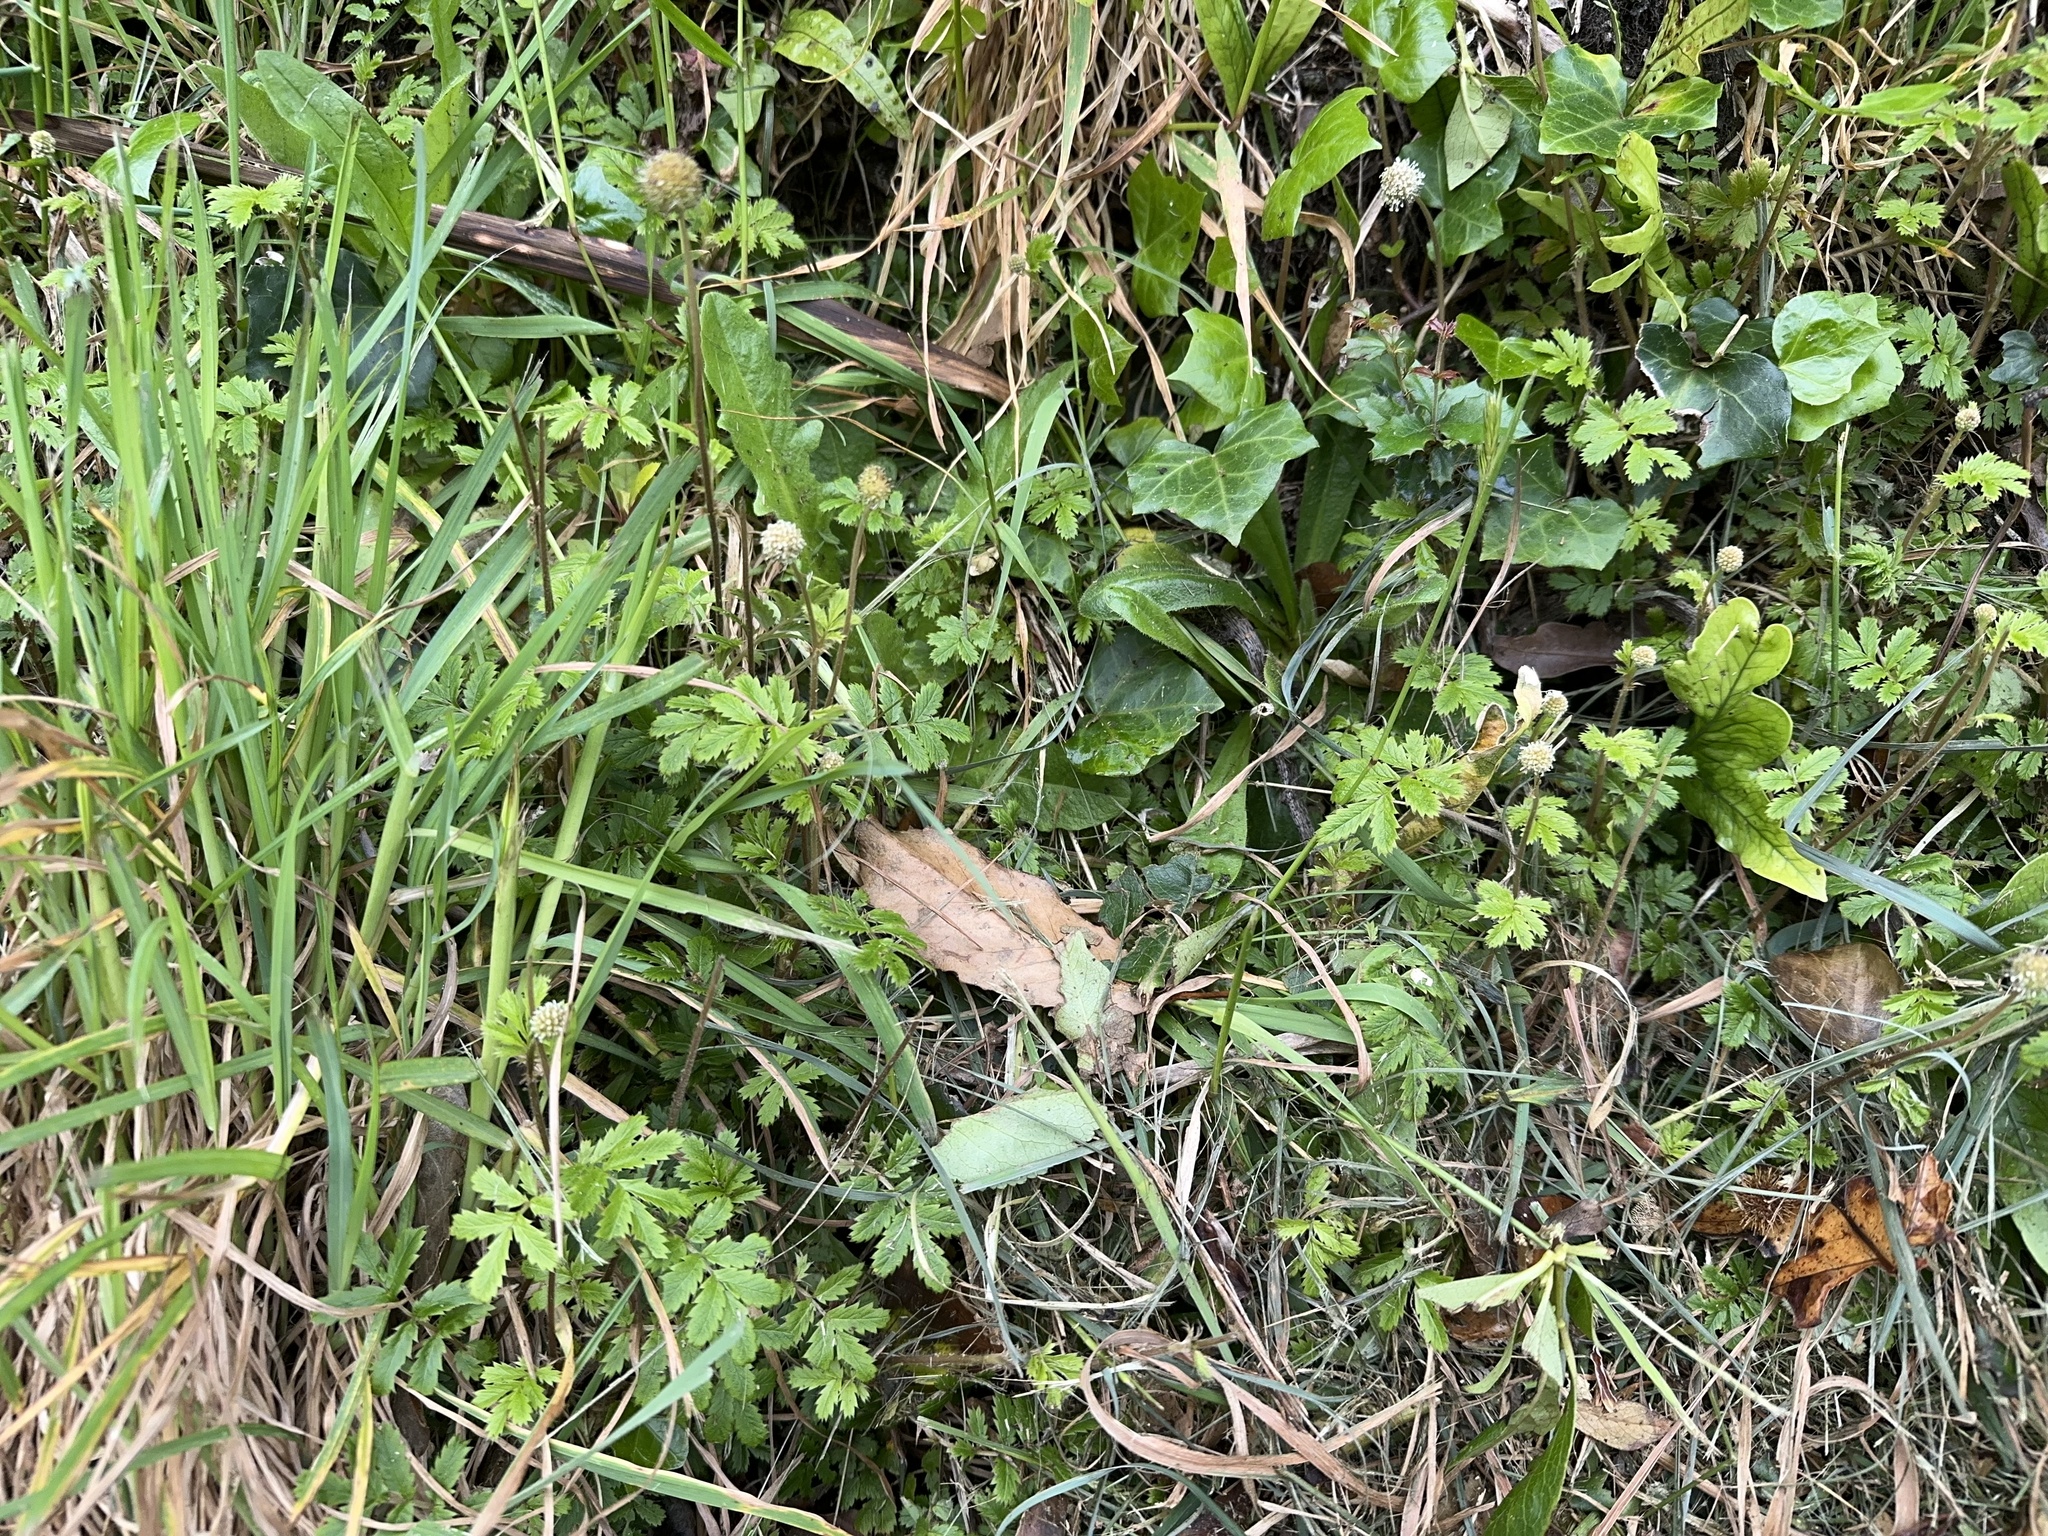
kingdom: Plantae
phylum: Tracheophyta
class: Magnoliopsida
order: Rosales
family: Rosaceae
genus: Acaena
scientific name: Acaena anserinifolia
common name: Bronze pirri-pirri-bur
